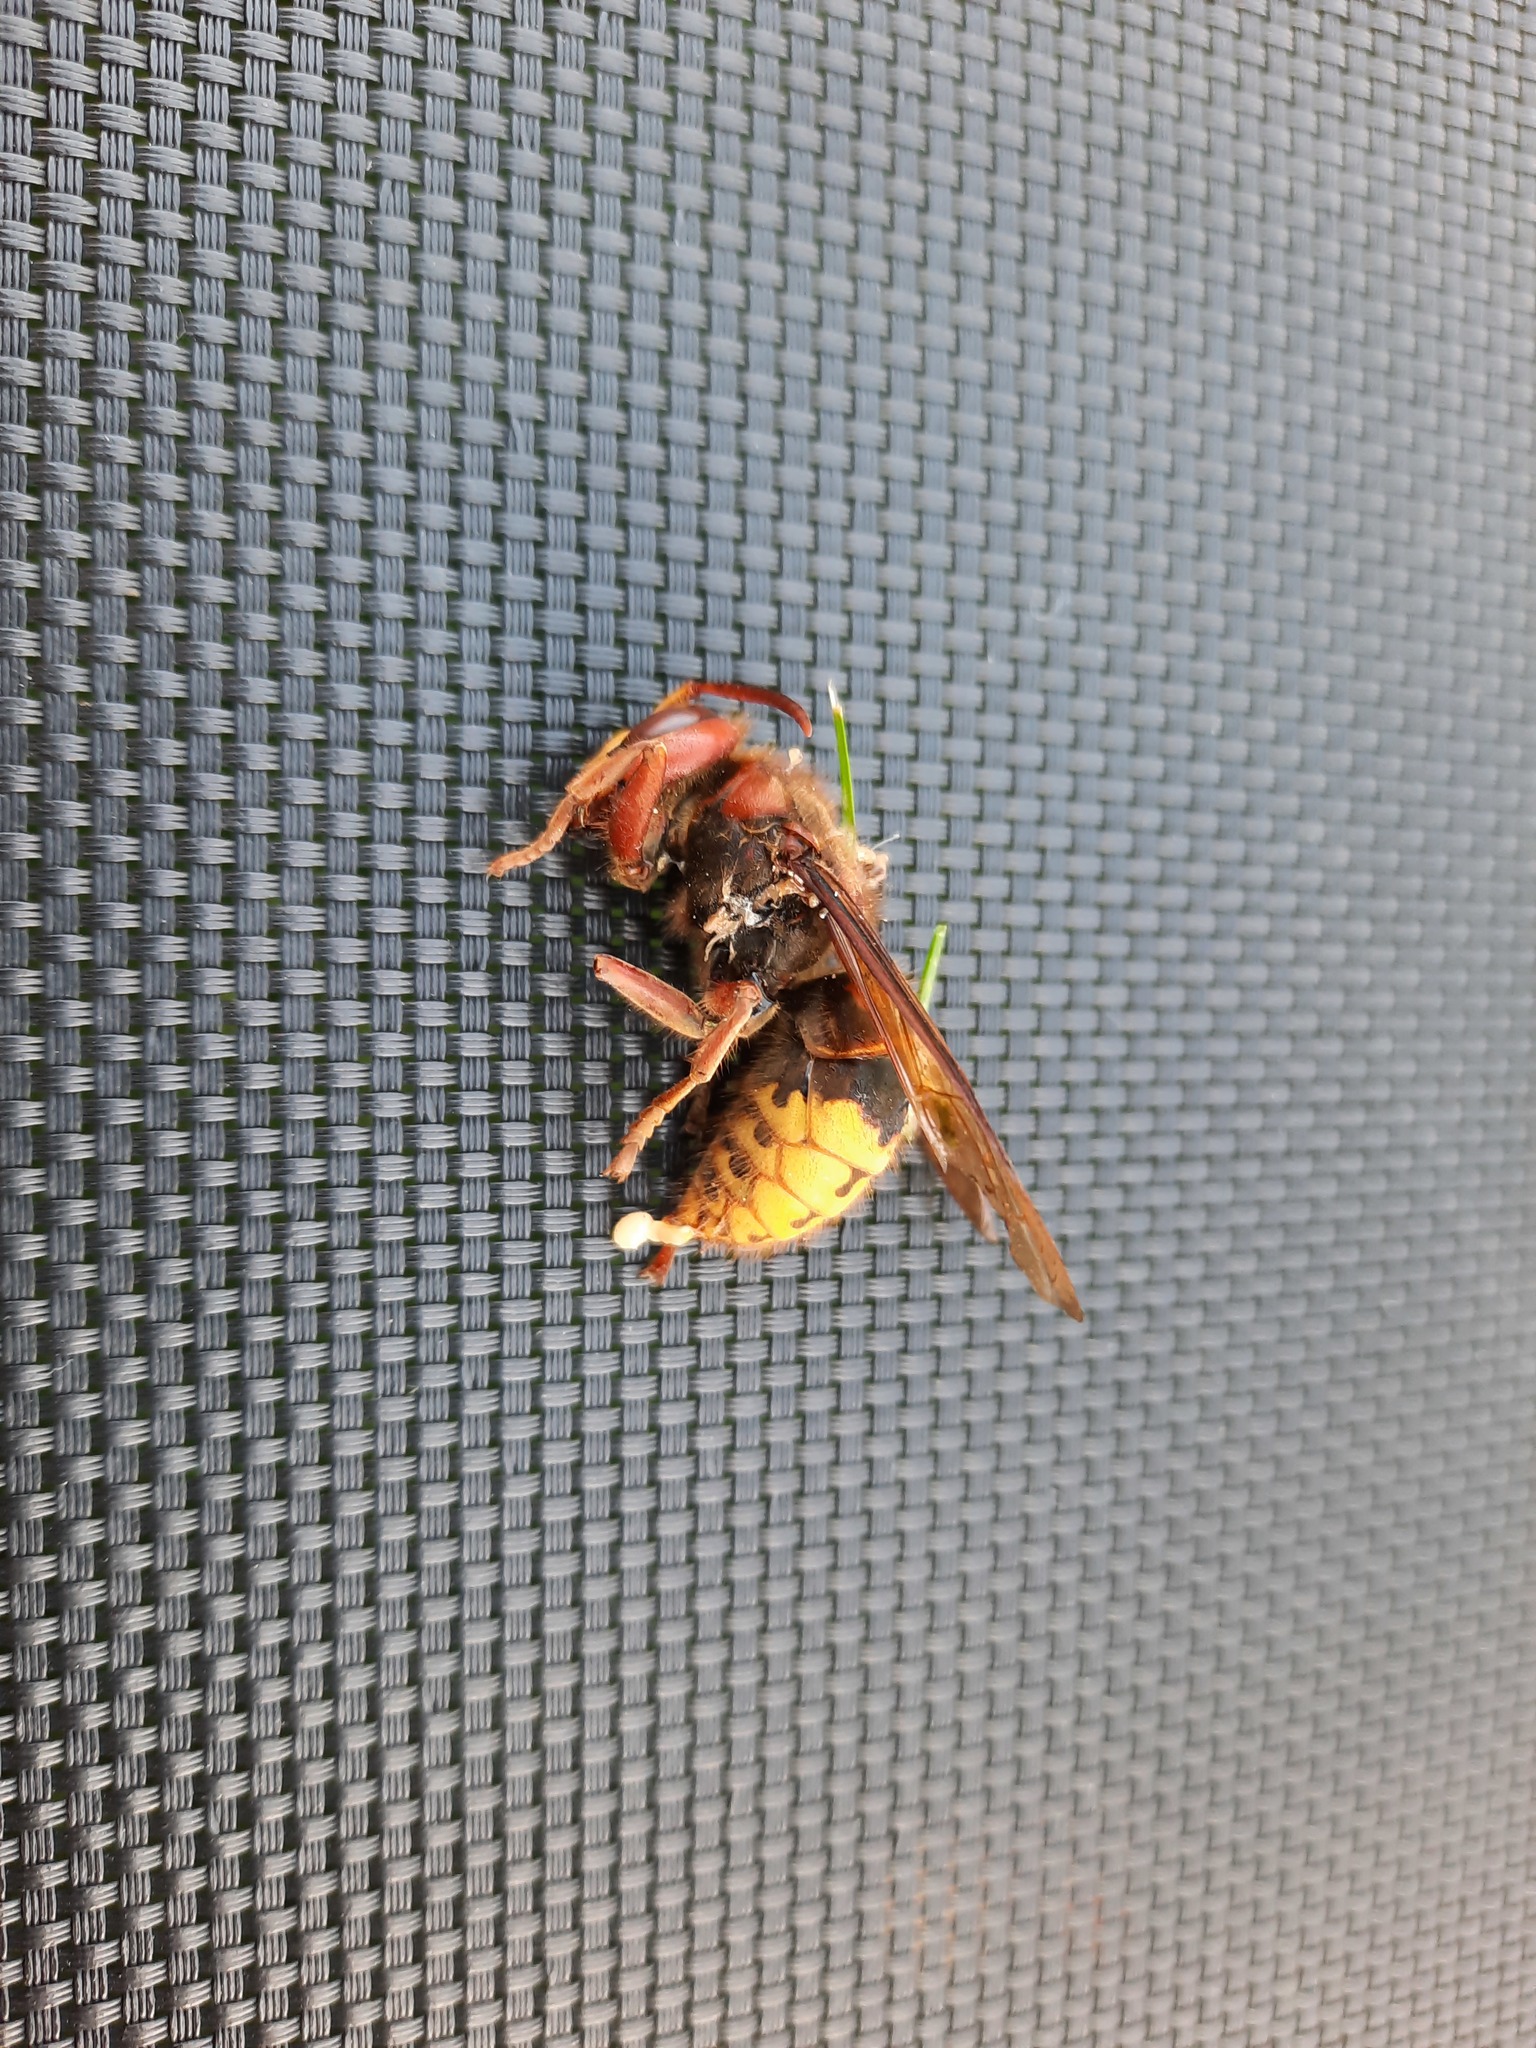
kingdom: Animalia
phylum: Arthropoda
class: Insecta
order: Hymenoptera
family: Vespidae
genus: Vespa
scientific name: Vespa crabro
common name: Hornet
